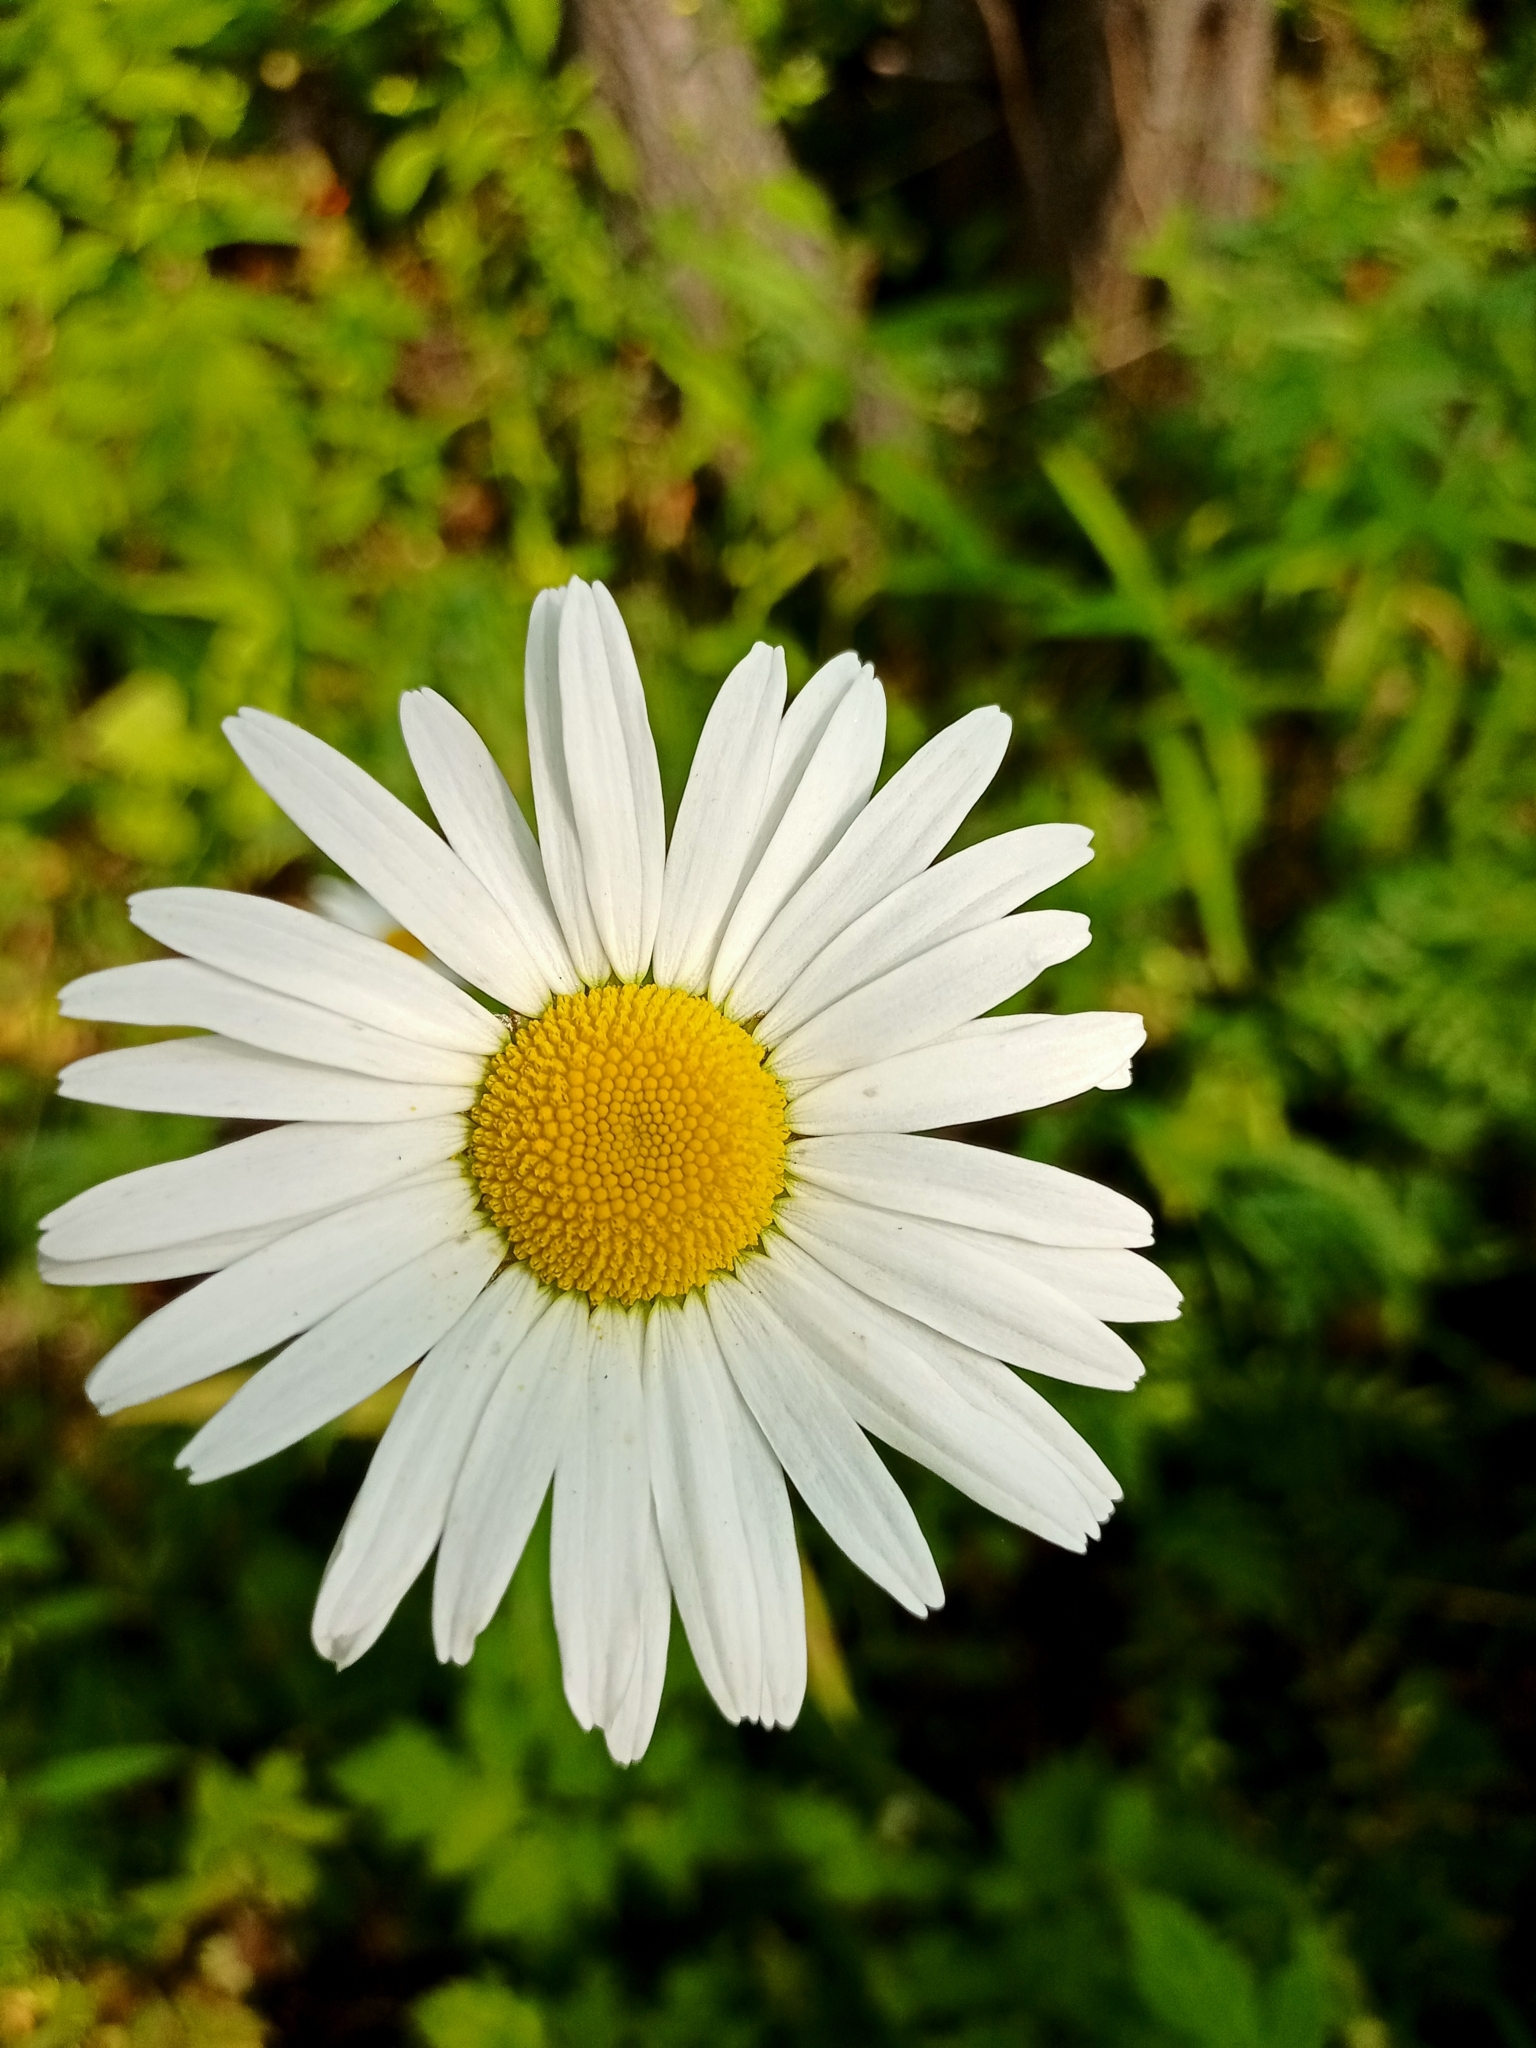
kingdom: Plantae
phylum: Tracheophyta
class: Magnoliopsida
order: Asterales
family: Asteraceae
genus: Leucanthemum
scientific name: Leucanthemum ircutianum
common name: Daisy
